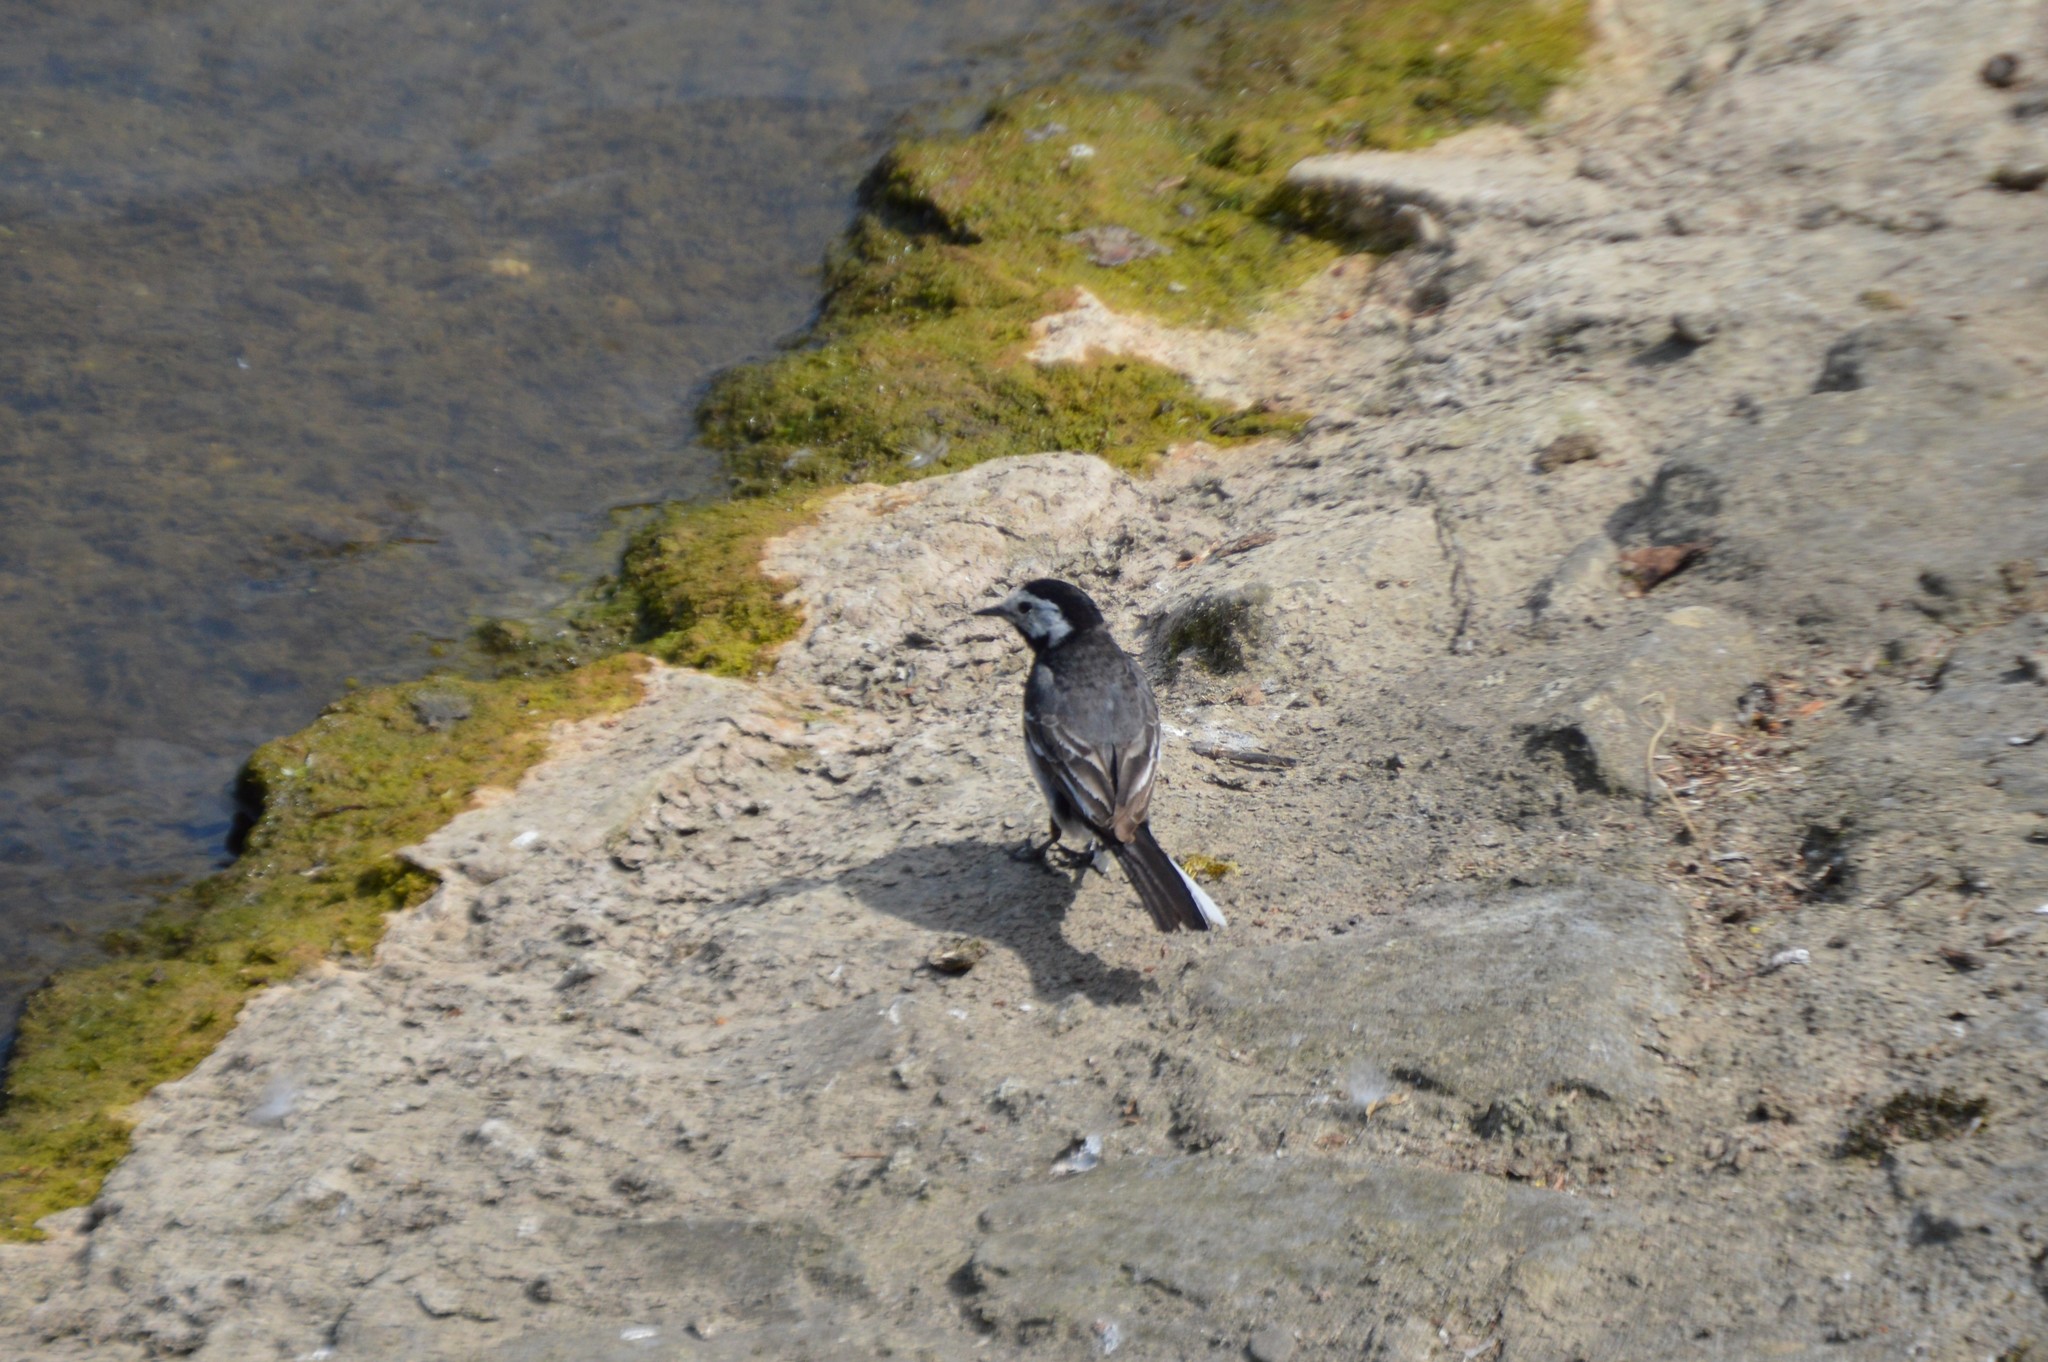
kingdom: Animalia
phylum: Chordata
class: Aves
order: Passeriformes
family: Motacillidae
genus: Motacilla
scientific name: Motacilla alba
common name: White wagtail
